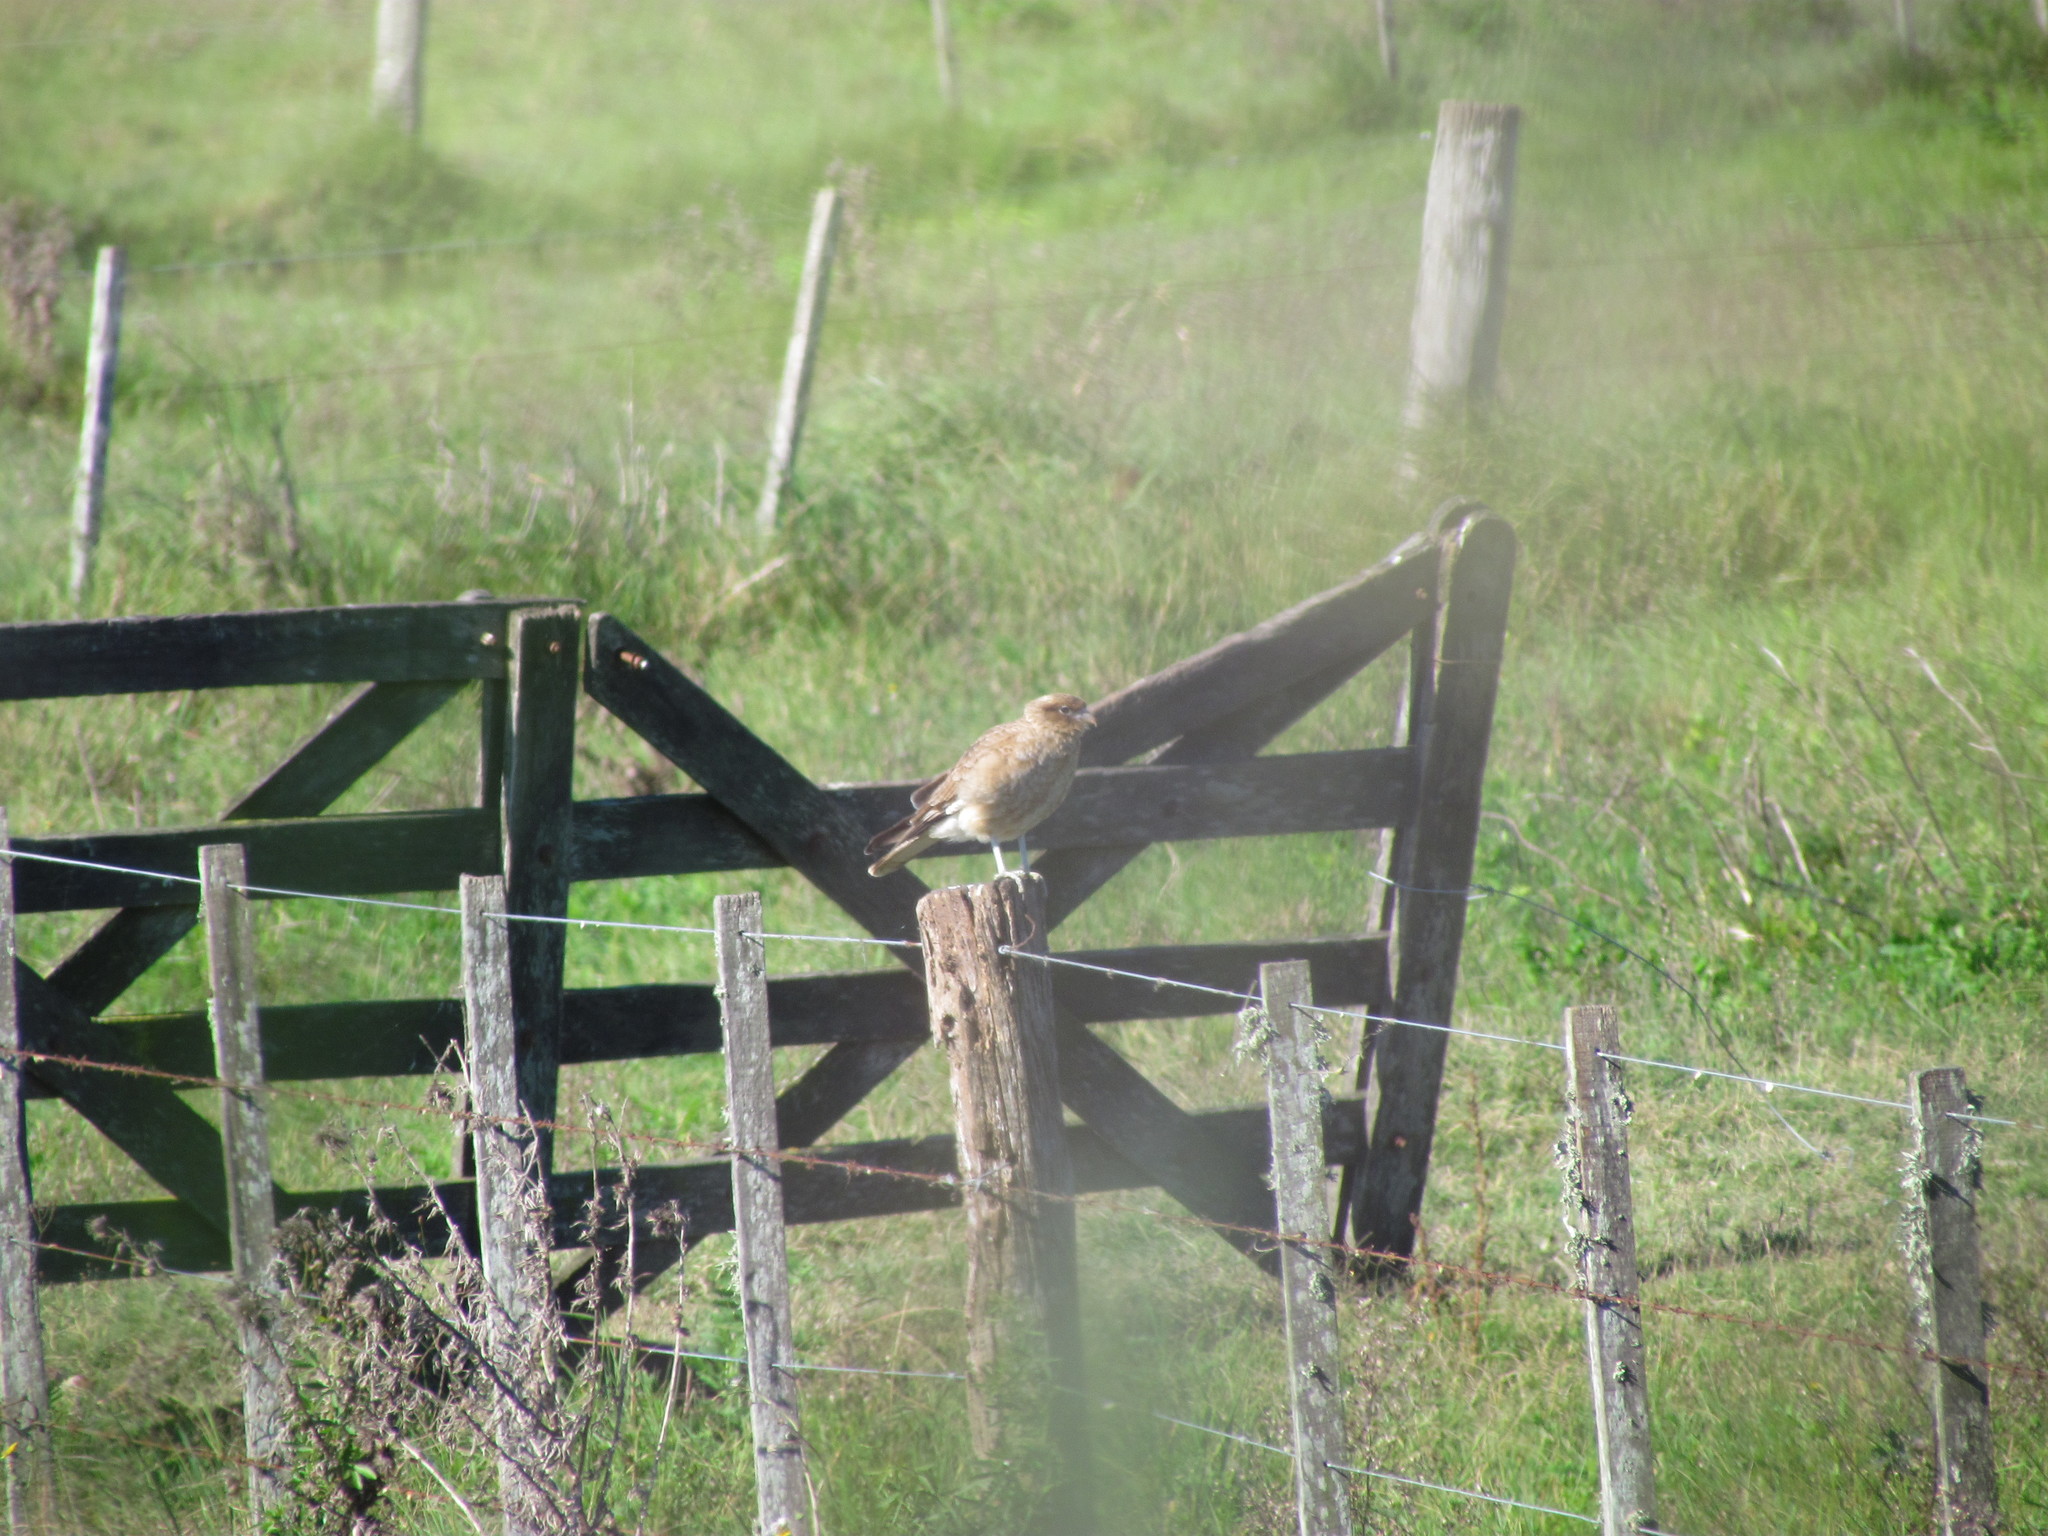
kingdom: Animalia
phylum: Chordata
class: Aves
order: Falconiformes
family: Falconidae
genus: Daptrius
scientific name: Daptrius
